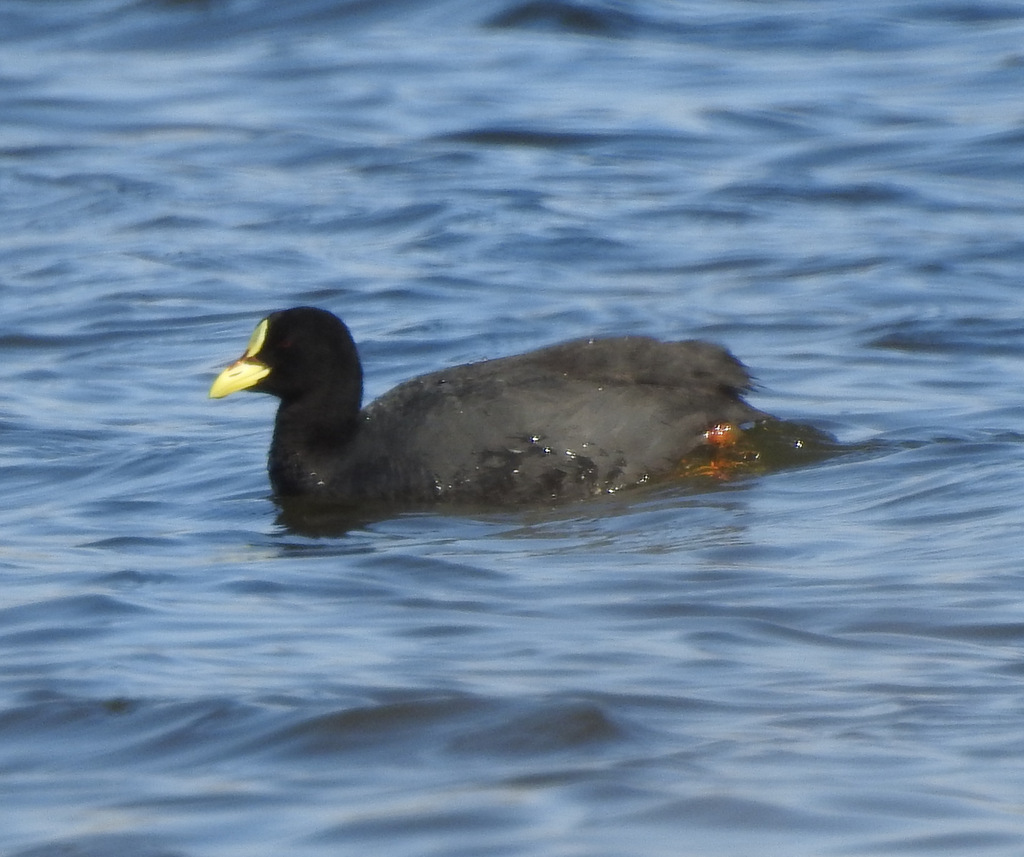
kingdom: Animalia
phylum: Chordata
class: Aves
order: Gruiformes
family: Rallidae
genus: Fulica
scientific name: Fulica armillata
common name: Red-gartered coot
